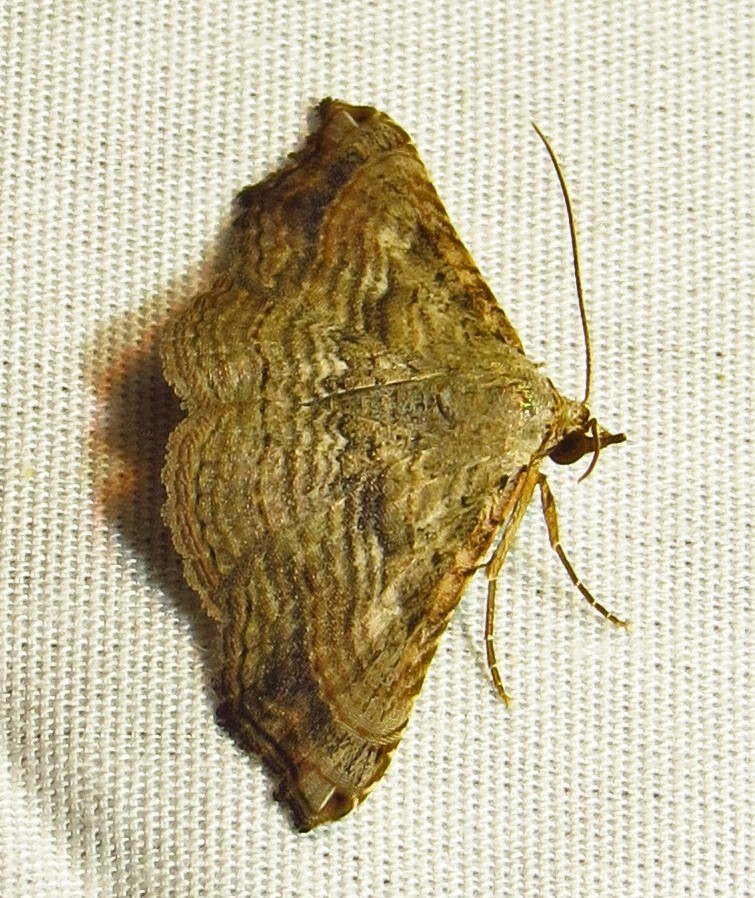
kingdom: Animalia
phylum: Arthropoda
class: Insecta
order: Lepidoptera
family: Erebidae
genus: Tyrissa
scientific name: Tyrissa multilinea
